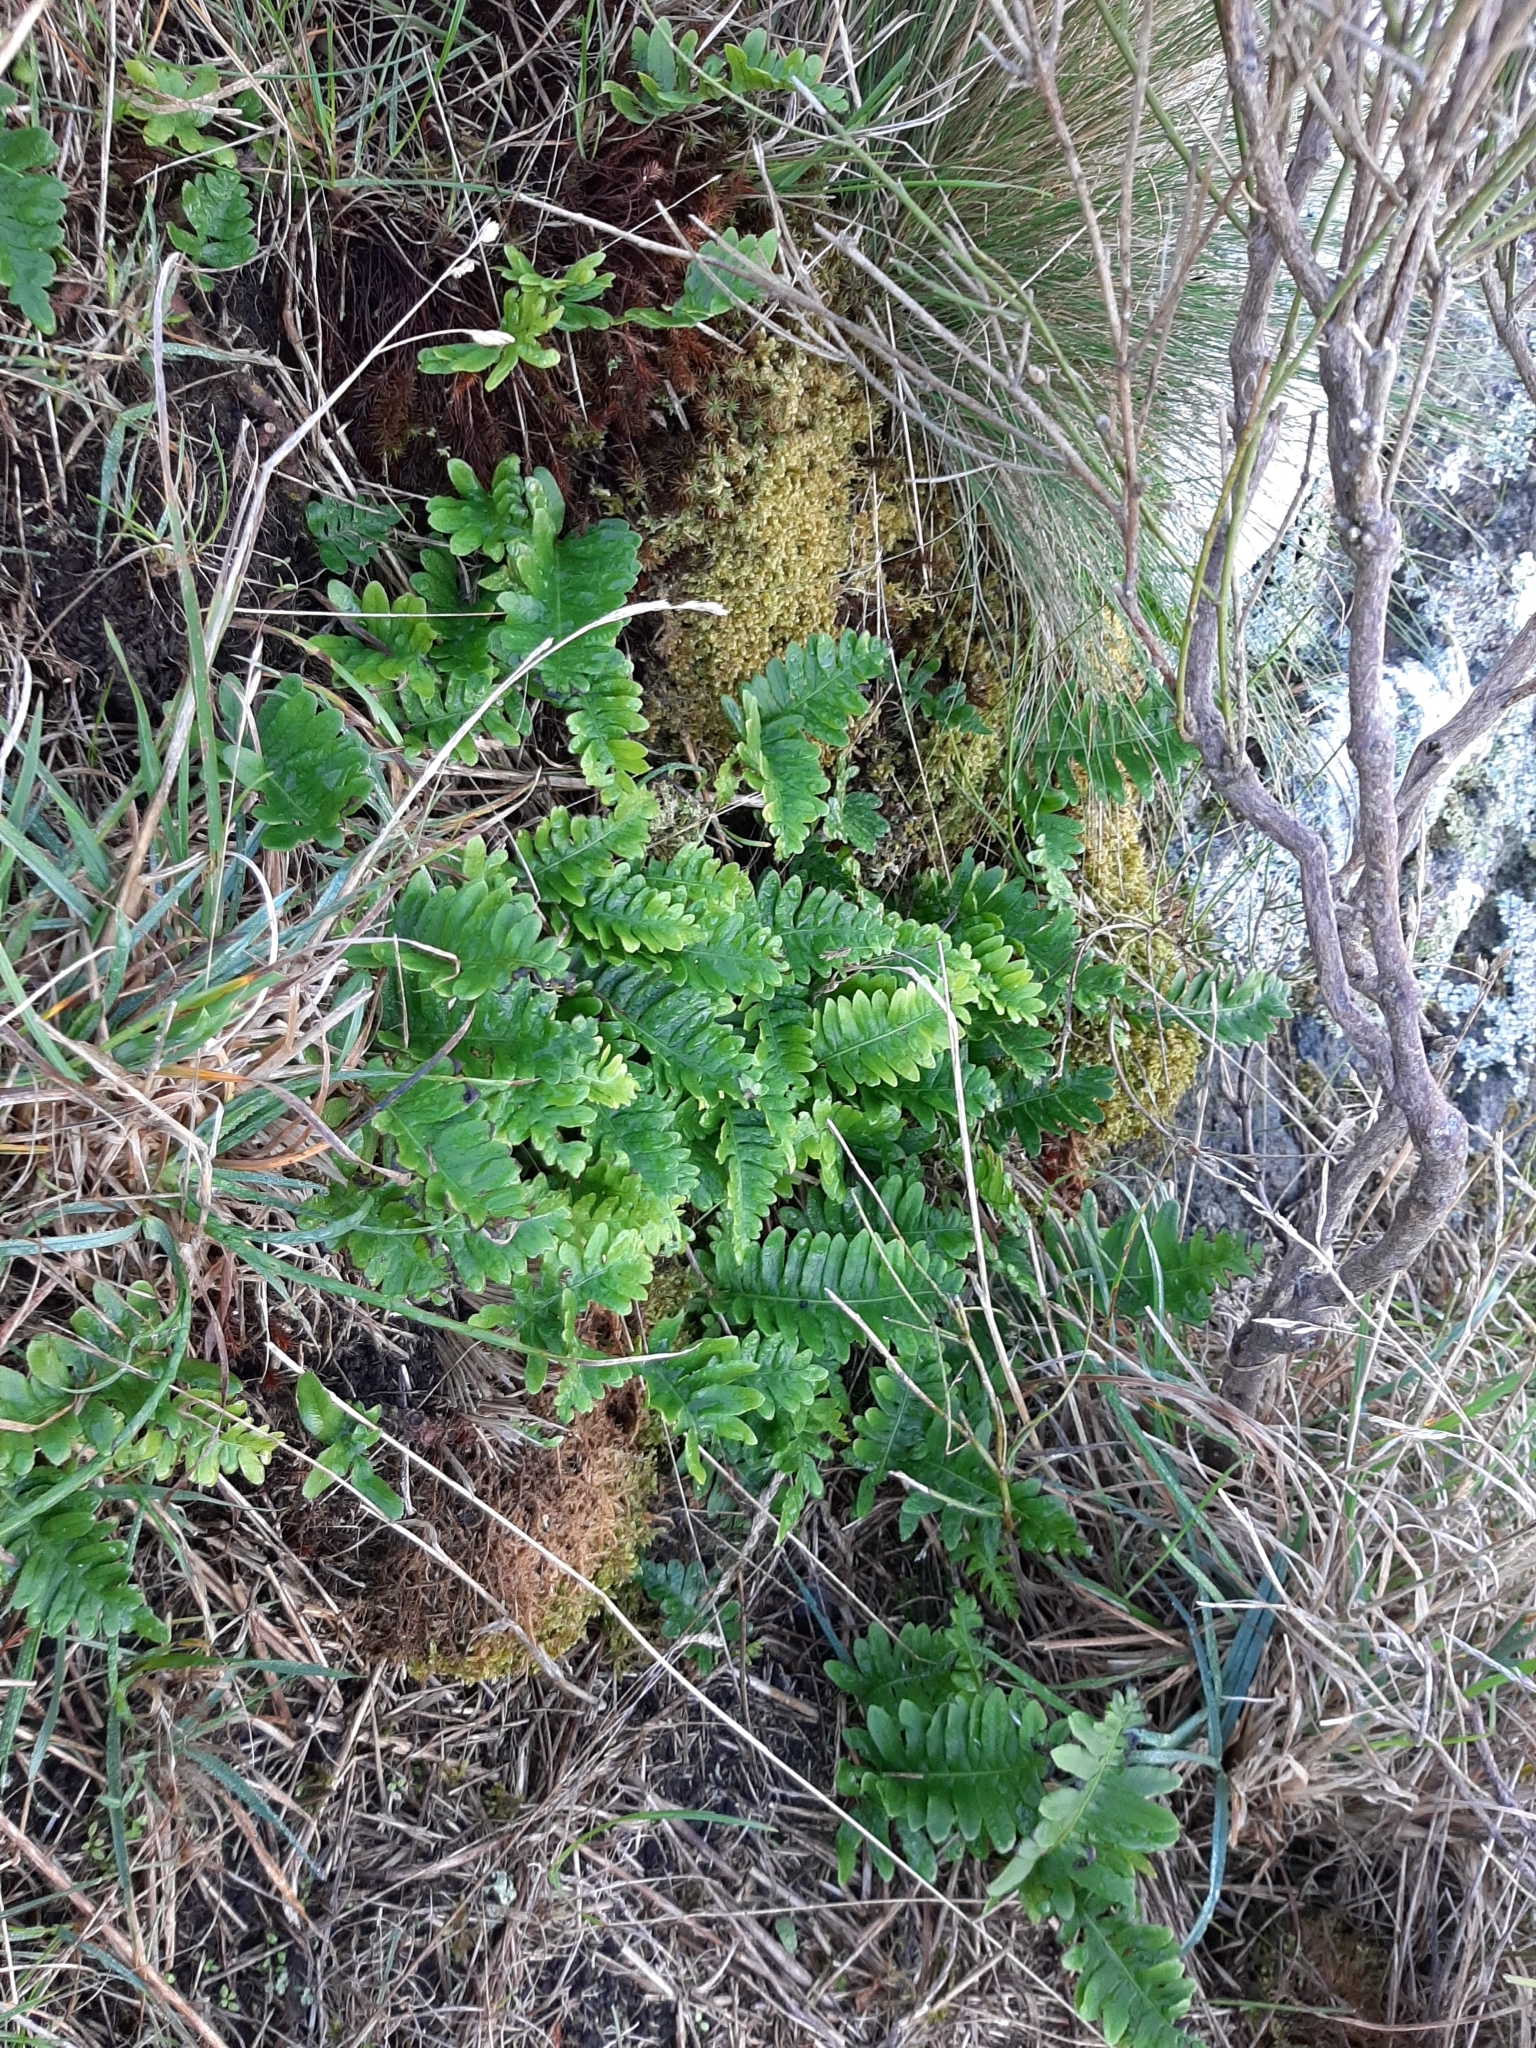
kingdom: Plantae
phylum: Tracheophyta
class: Polypodiopsida
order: Polypodiales
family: Polypodiaceae
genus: Polypodium
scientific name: Polypodium vulgare
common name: Common polypody
